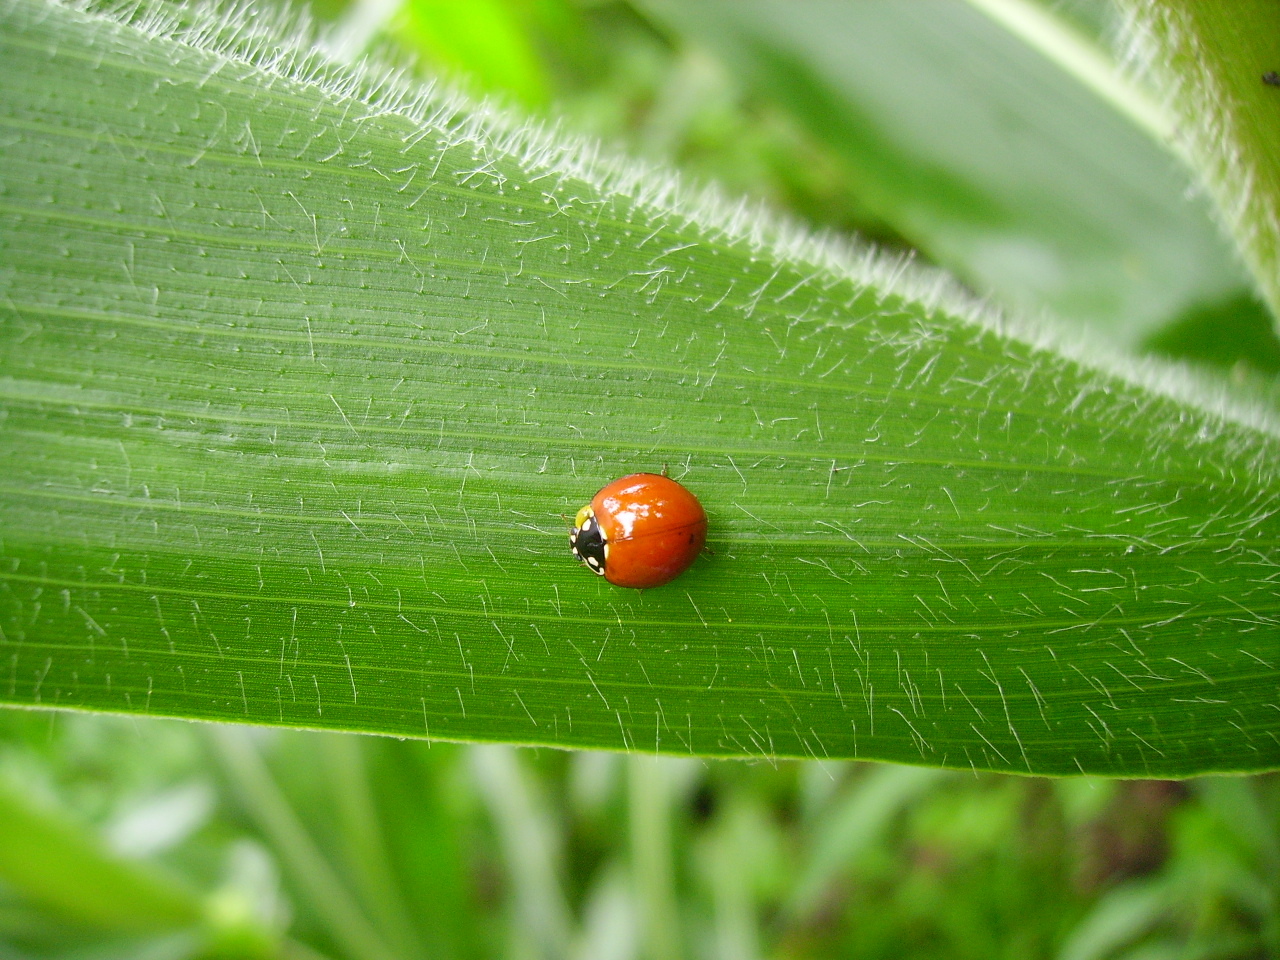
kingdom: Animalia
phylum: Arthropoda
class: Insecta
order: Coleoptera
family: Coccinellidae
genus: Cycloneda
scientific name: Cycloneda sanguinea
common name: Ladybird beetle
